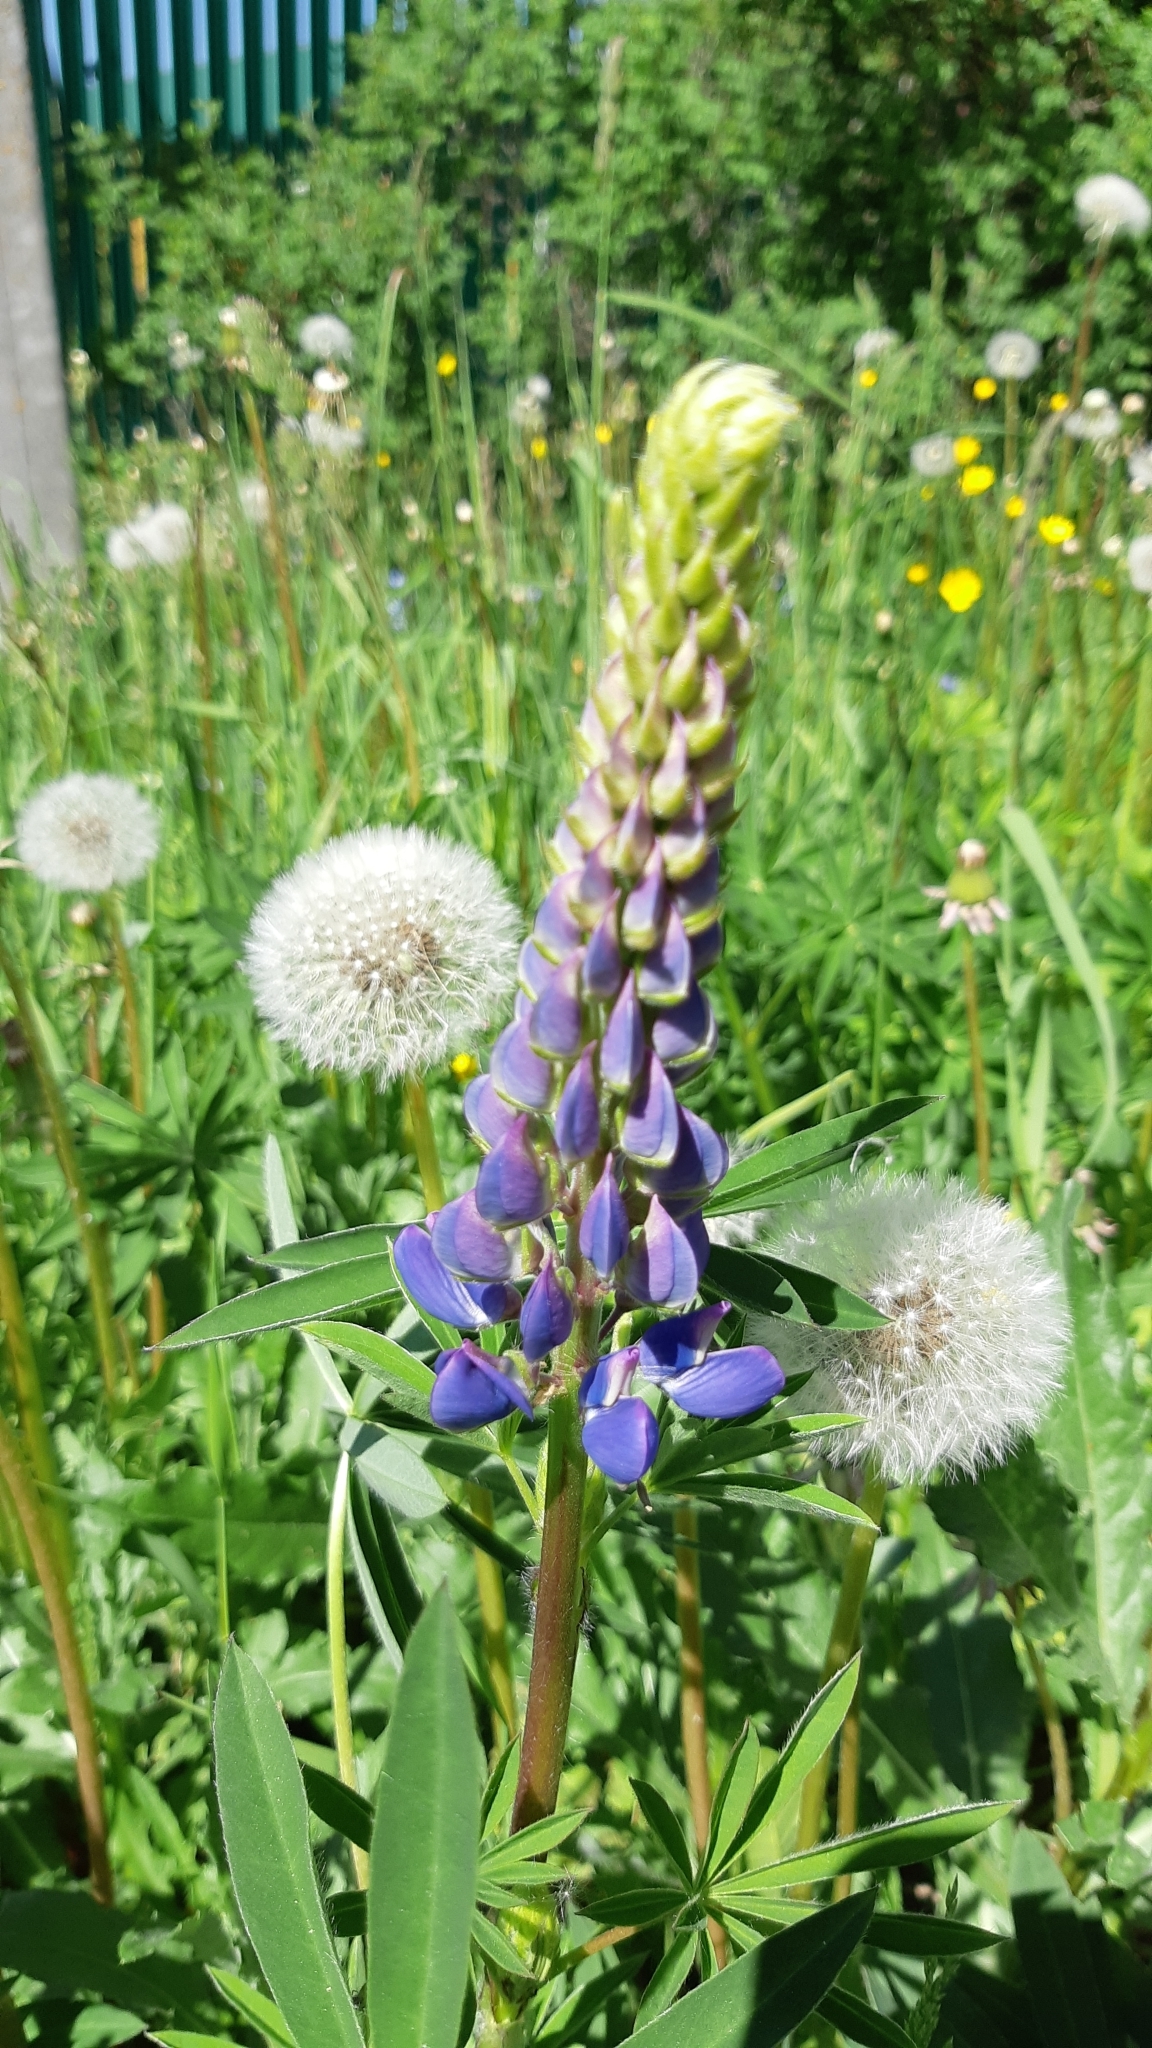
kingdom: Plantae
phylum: Tracheophyta
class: Magnoliopsida
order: Fabales
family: Fabaceae
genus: Lupinus
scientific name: Lupinus polyphyllus
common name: Garden lupin
